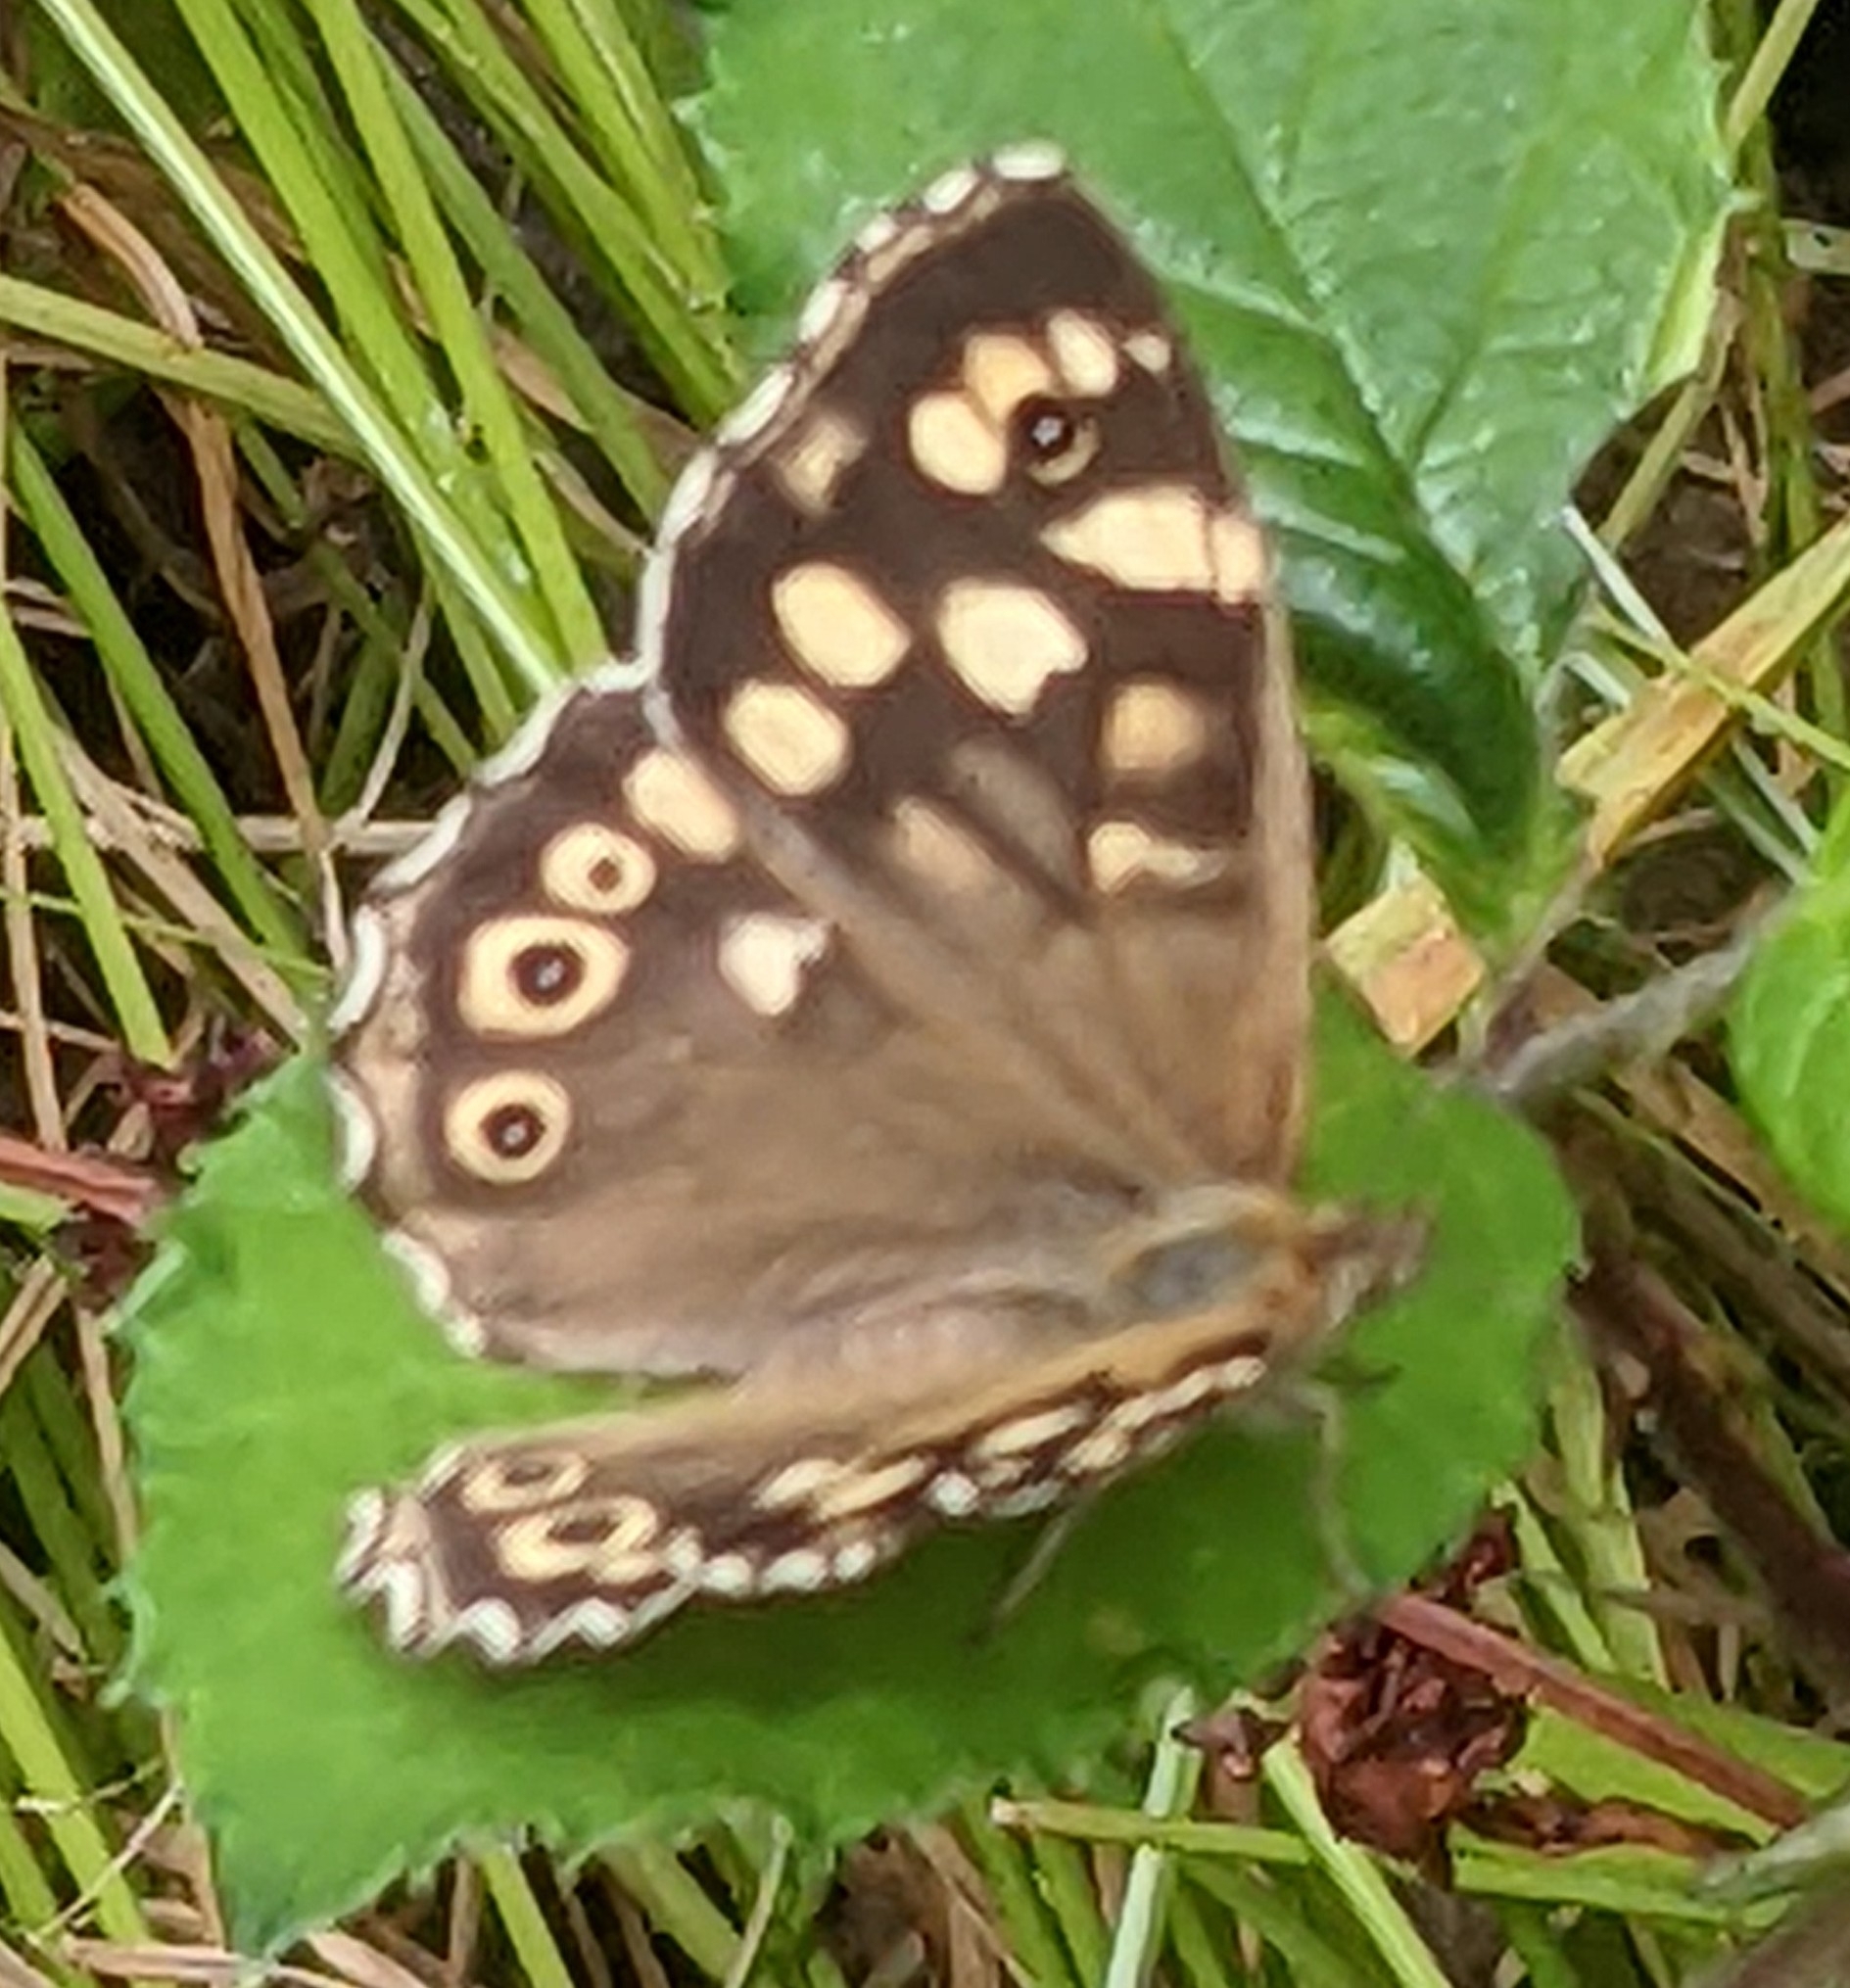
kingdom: Animalia
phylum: Arthropoda
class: Insecta
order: Lepidoptera
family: Nymphalidae
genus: Pararge
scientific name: Pararge aegeria
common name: Speckled wood
